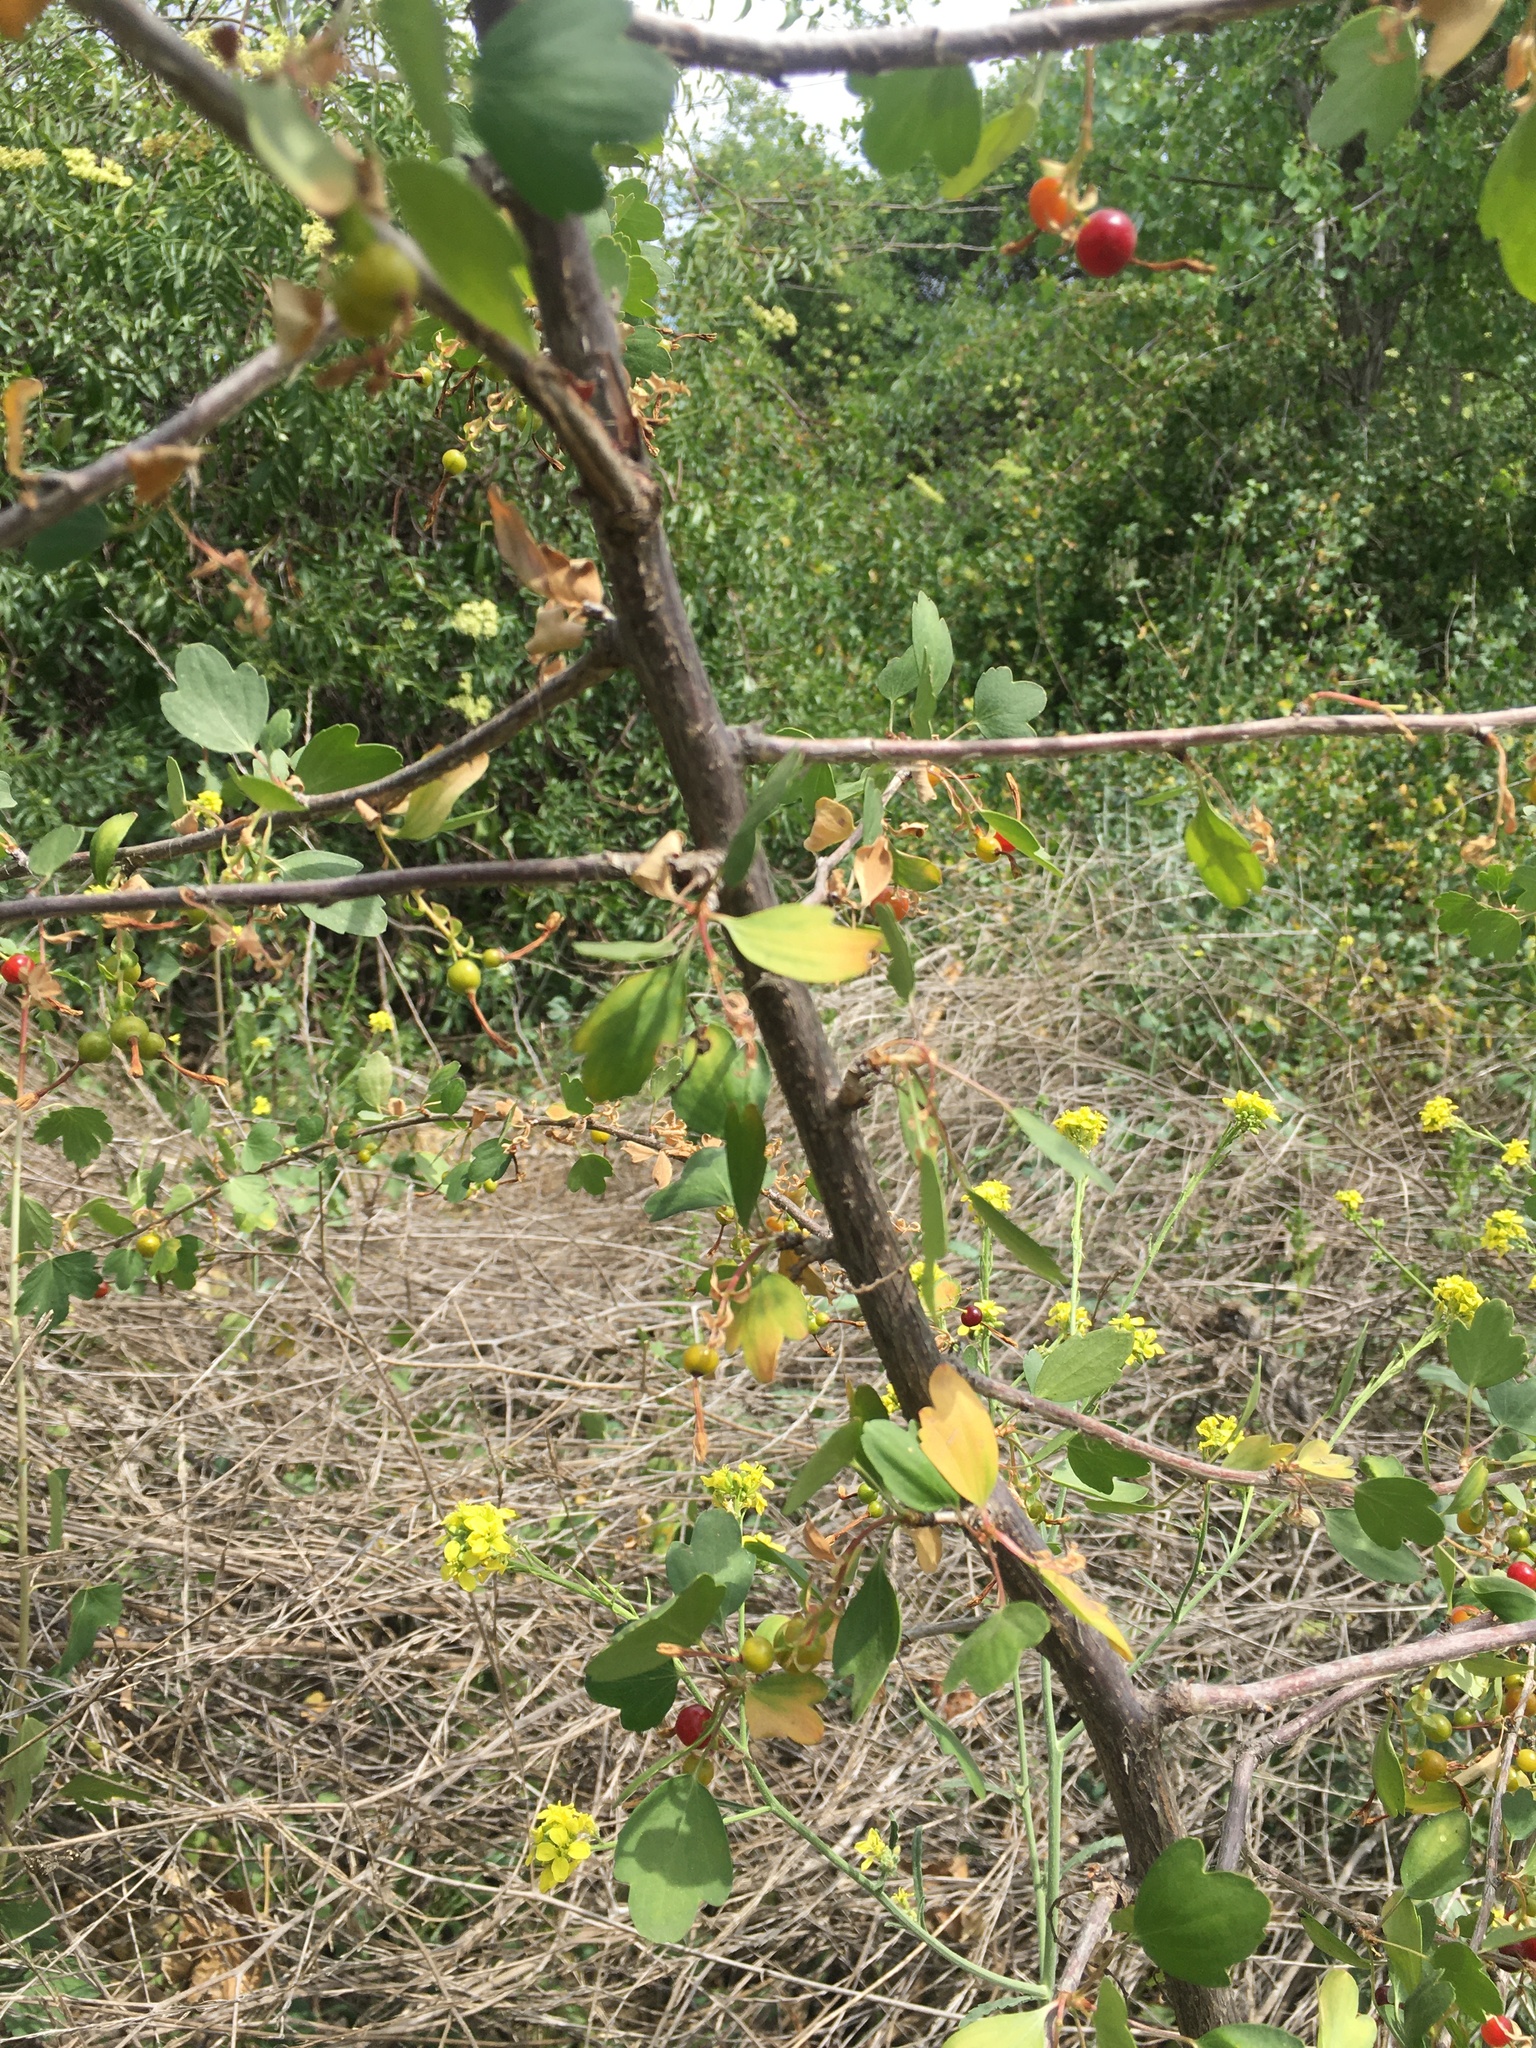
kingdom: Plantae
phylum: Tracheophyta
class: Magnoliopsida
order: Saxifragales
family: Grossulariaceae
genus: Ribes
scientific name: Ribes aureum
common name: Golden currant
